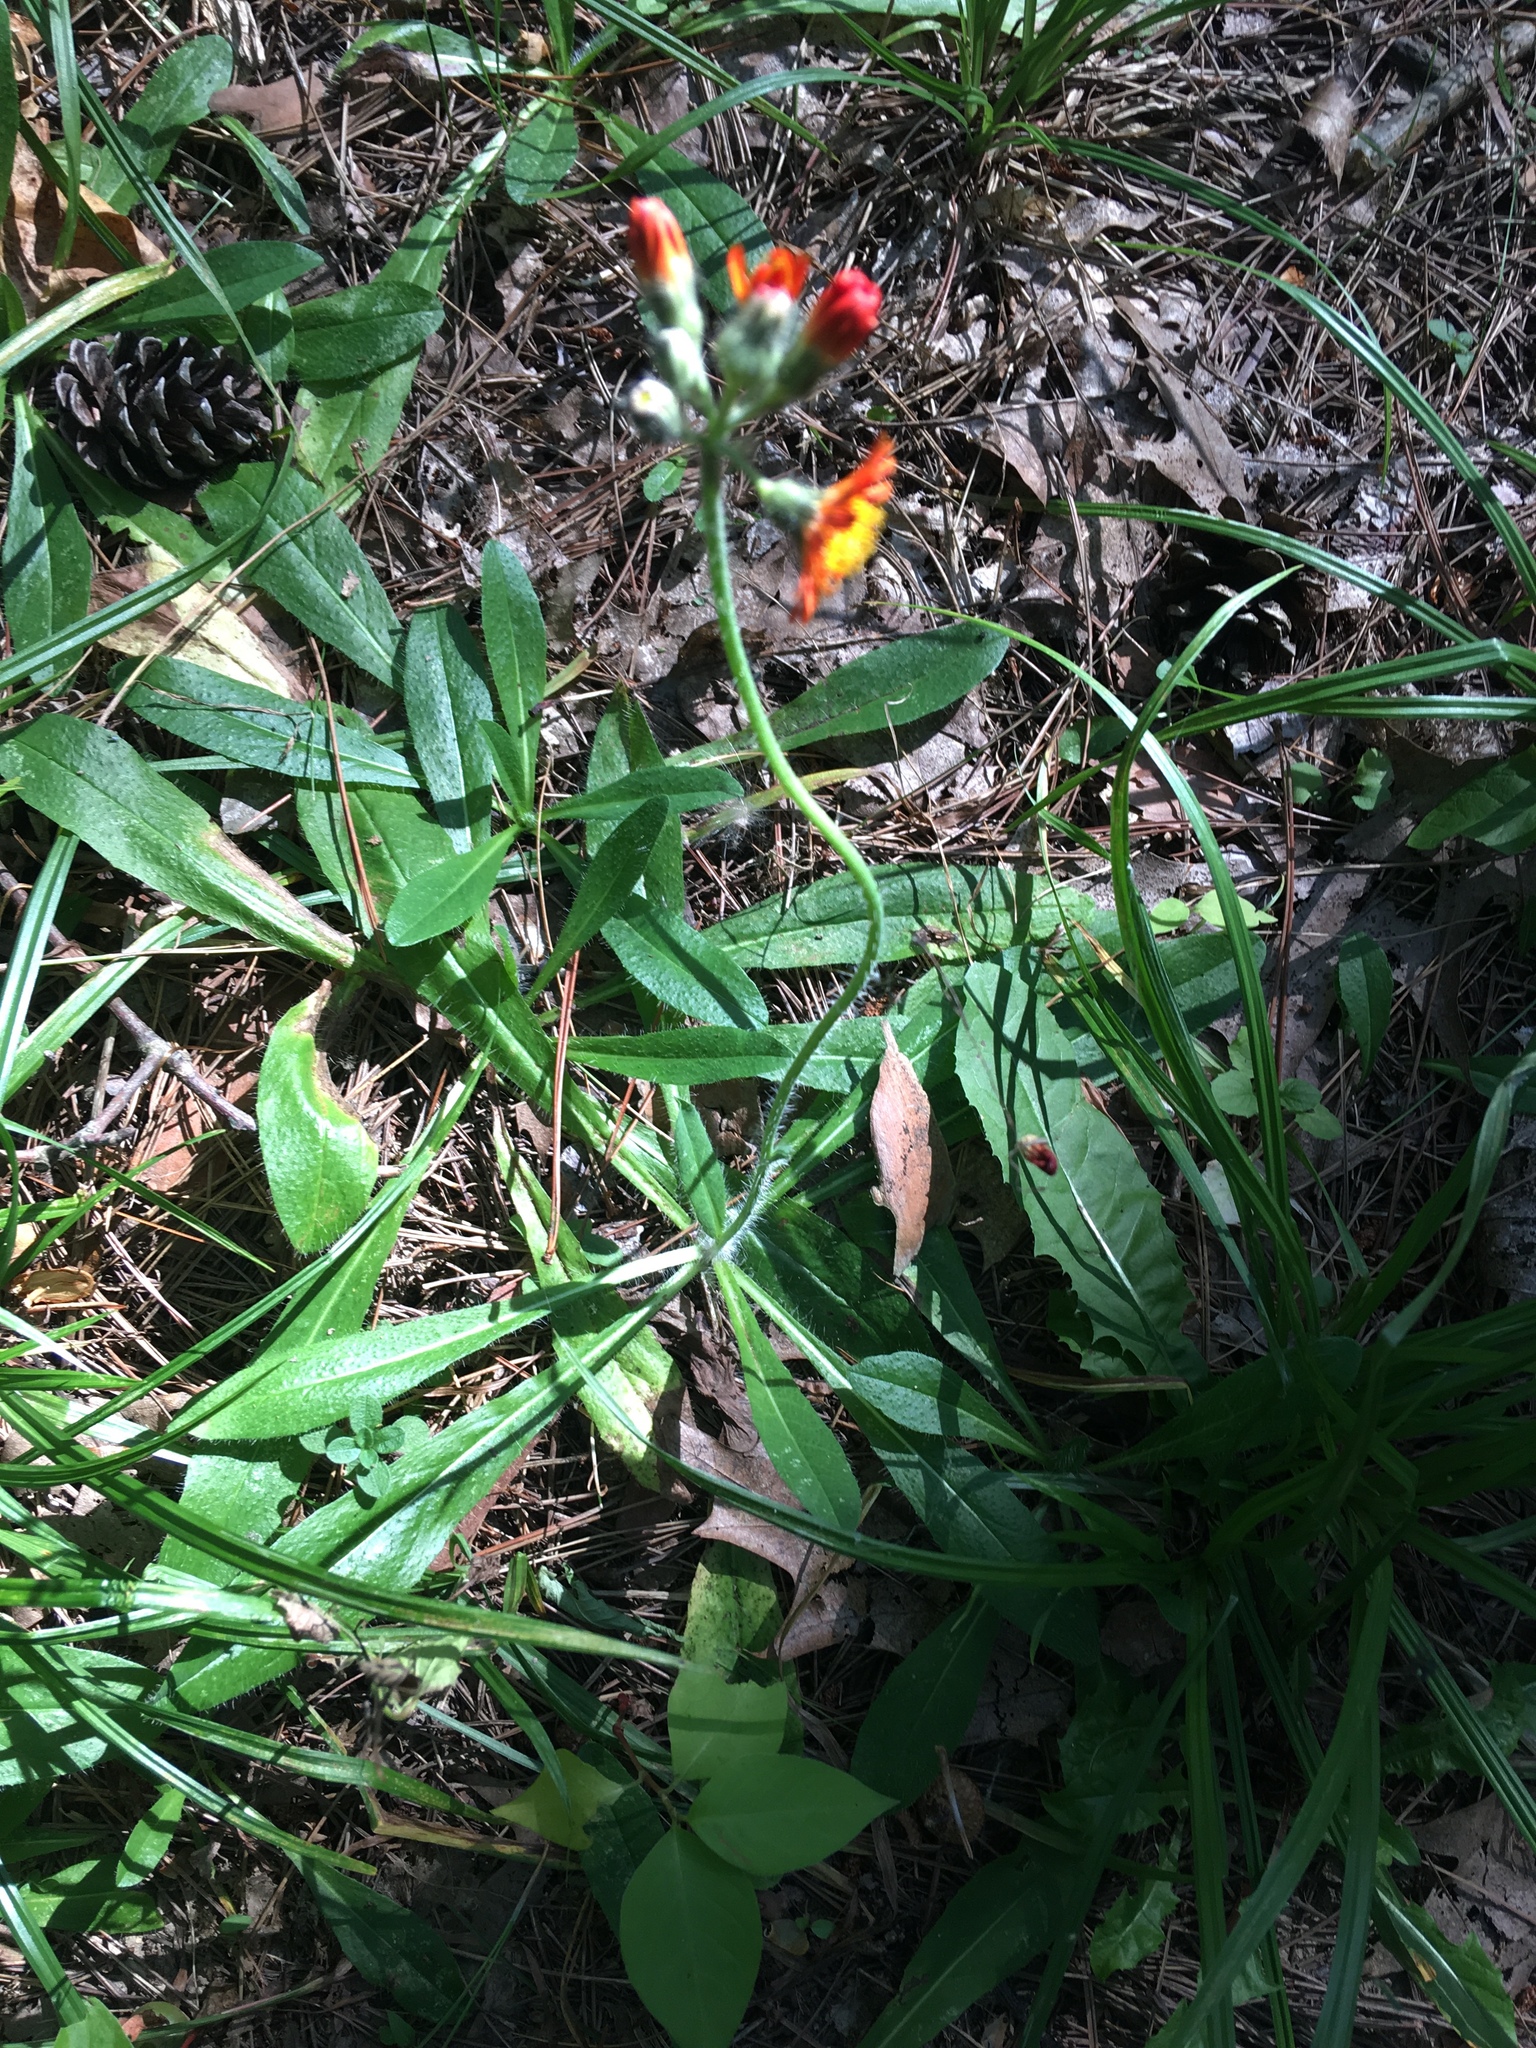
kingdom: Plantae
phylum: Tracheophyta
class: Magnoliopsida
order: Asterales
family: Asteraceae
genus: Pilosella
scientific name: Pilosella aurantiaca
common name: Fox-and-cubs
